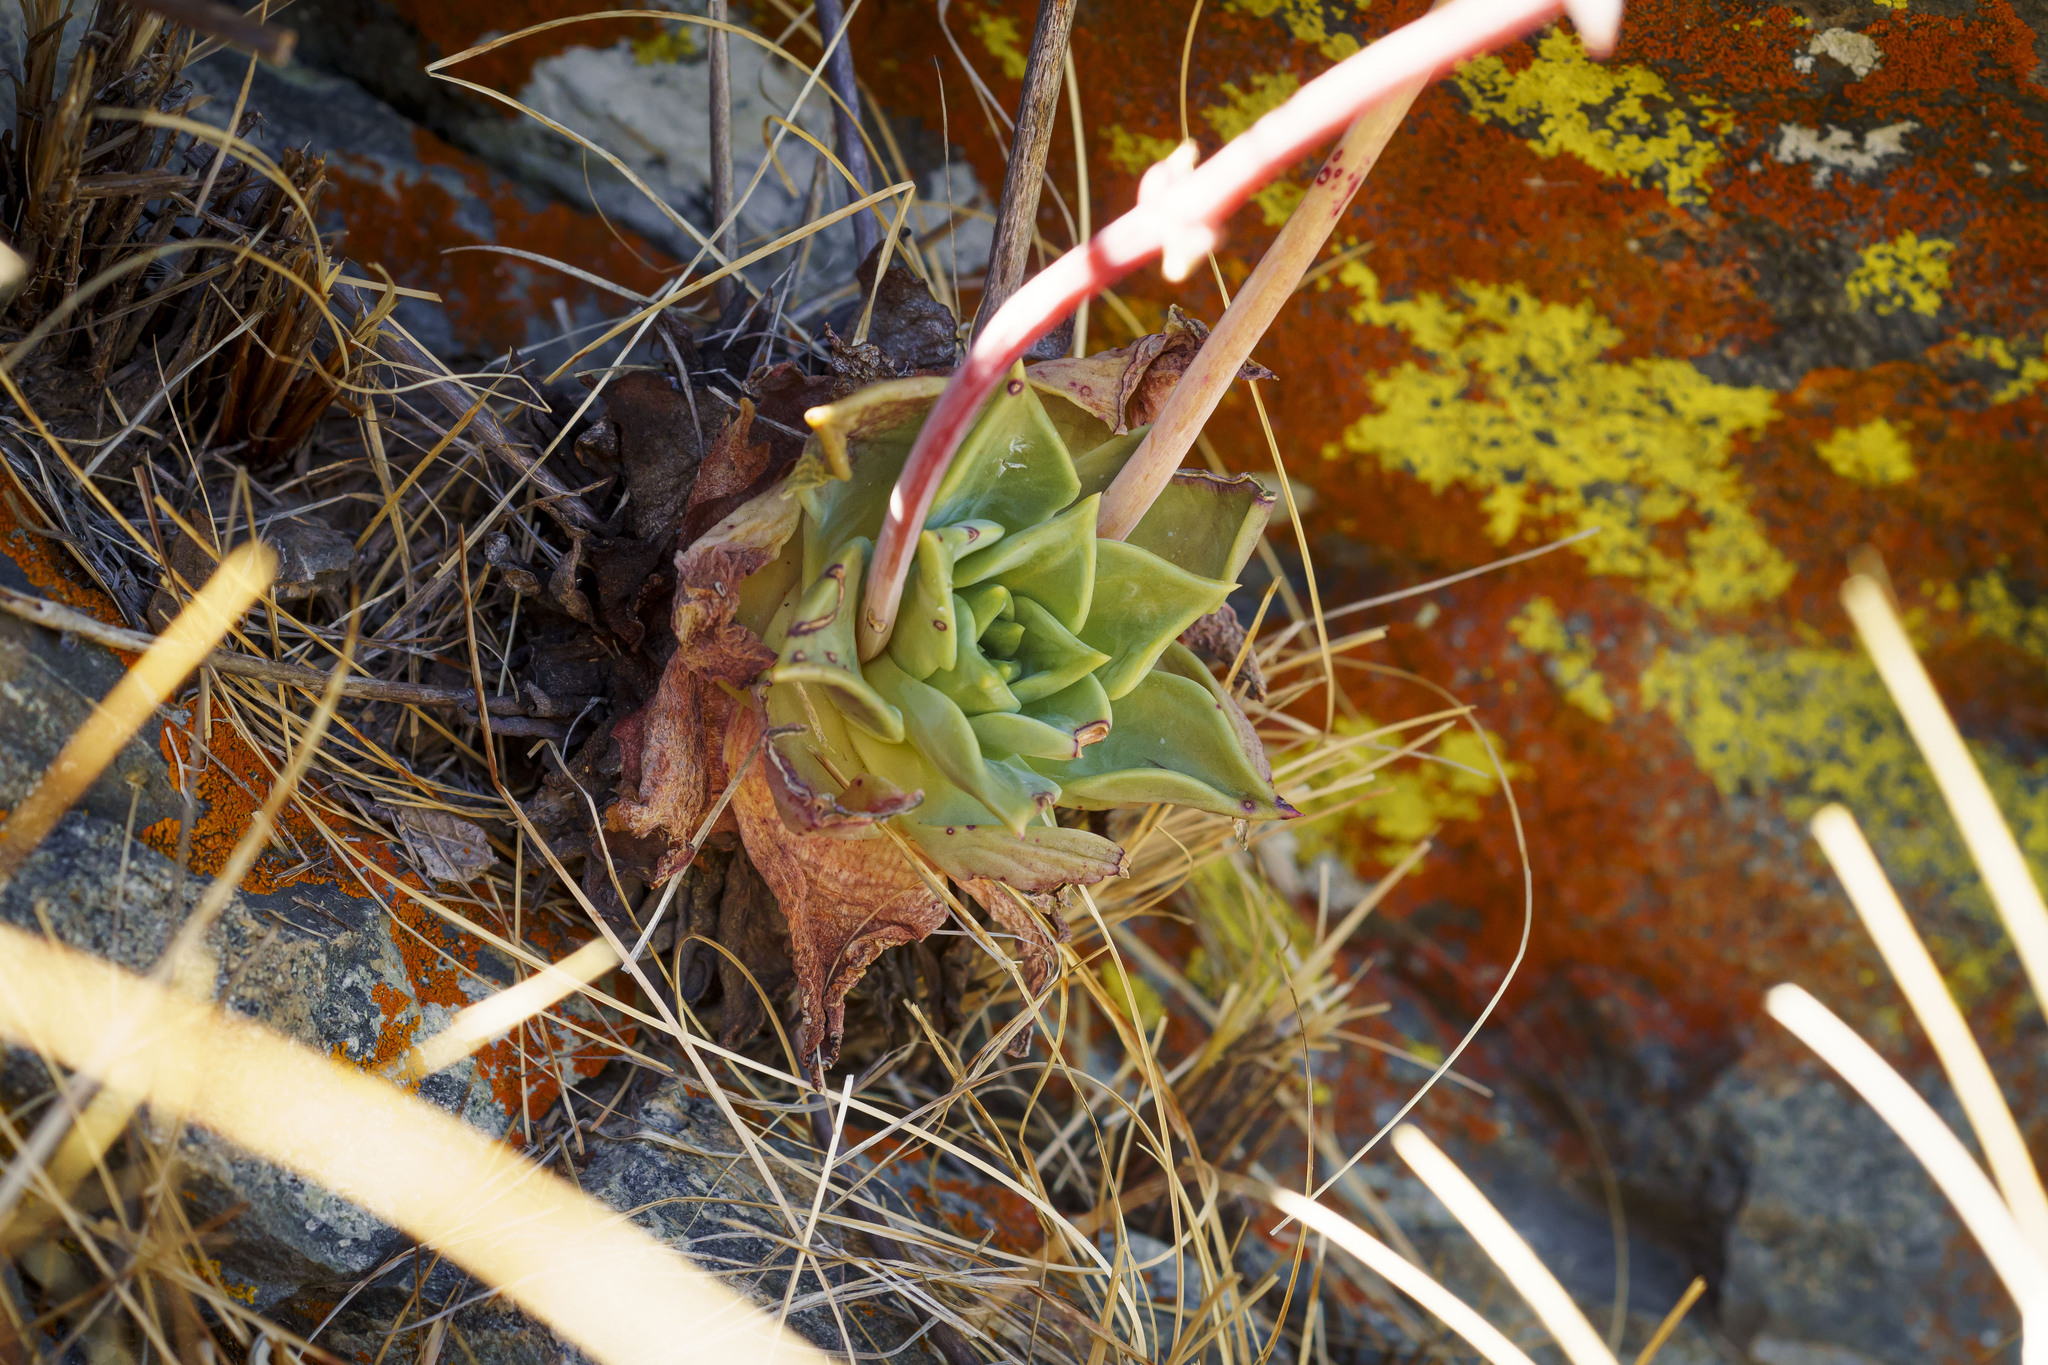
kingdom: Plantae
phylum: Tracheophyta
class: Magnoliopsida
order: Saxifragales
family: Crassulaceae
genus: Dudleya
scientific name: Dudleya rigida
